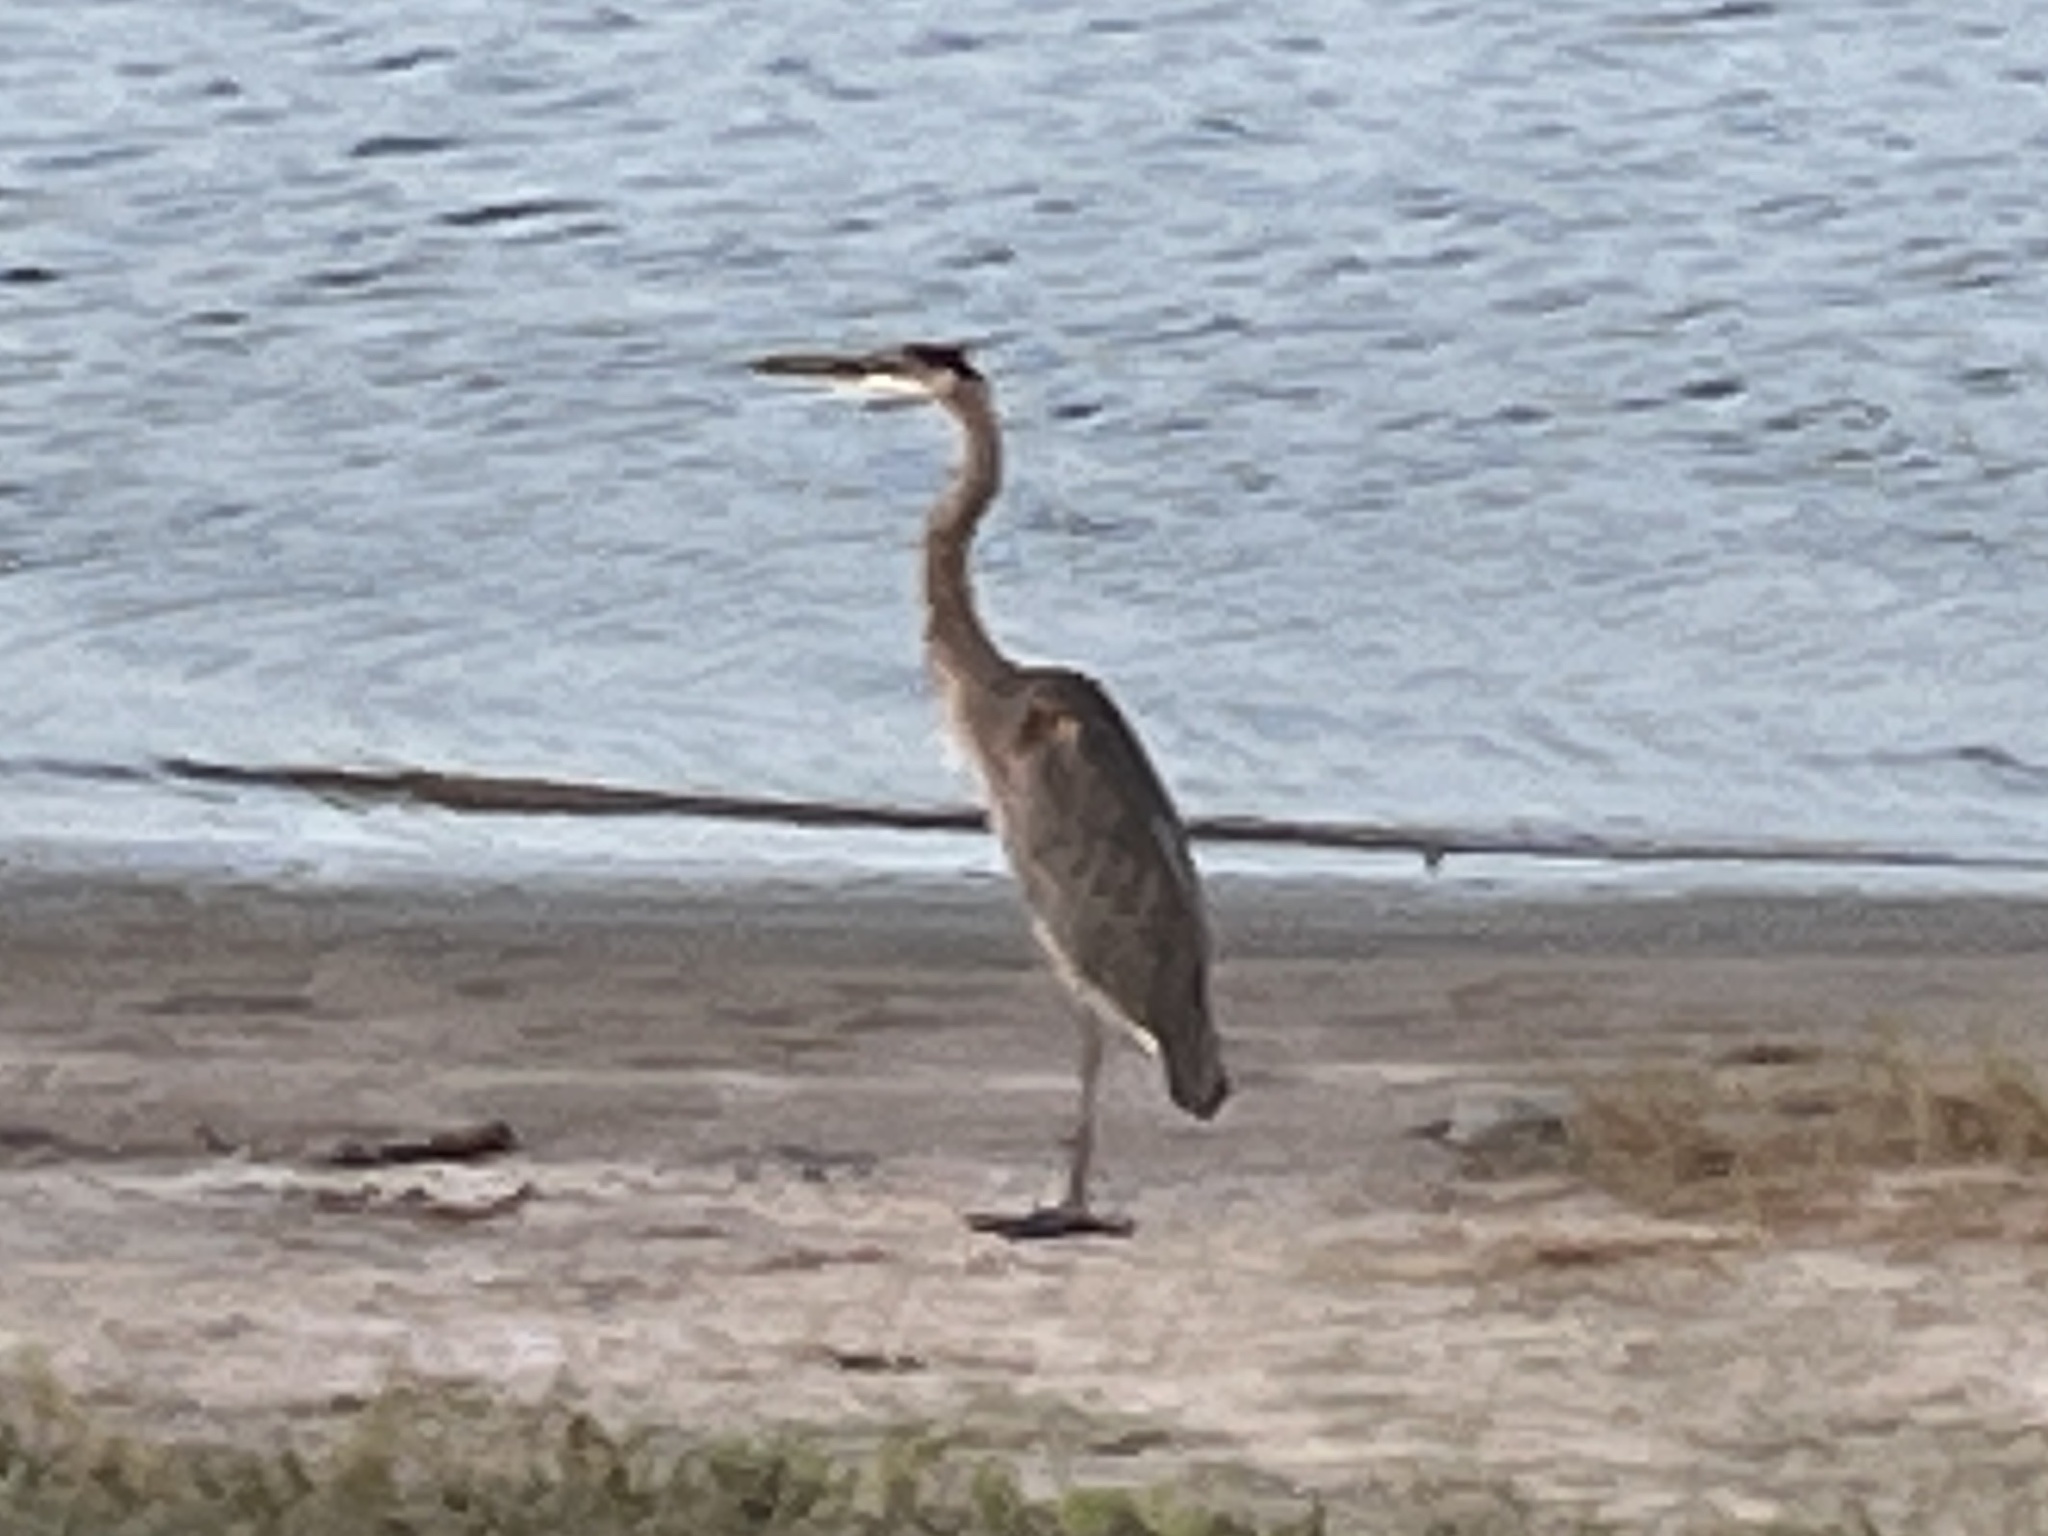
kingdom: Animalia
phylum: Chordata
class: Aves
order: Pelecaniformes
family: Ardeidae
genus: Ardea
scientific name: Ardea herodias
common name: Great blue heron
